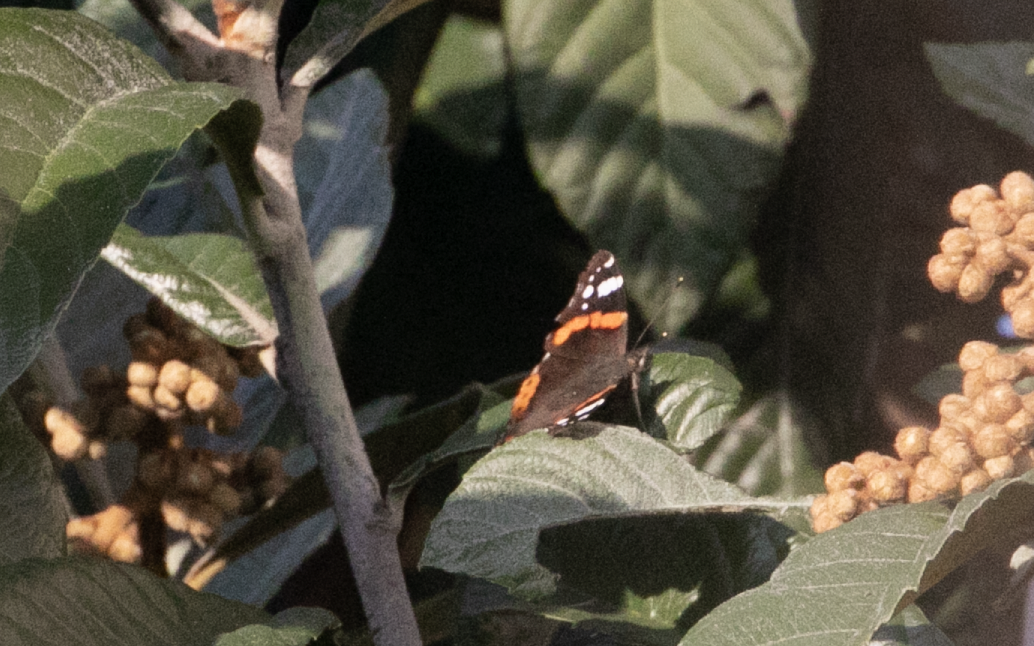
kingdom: Animalia
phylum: Arthropoda
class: Insecta
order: Lepidoptera
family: Nymphalidae
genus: Vanessa
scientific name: Vanessa atalanta
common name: Red admiral
